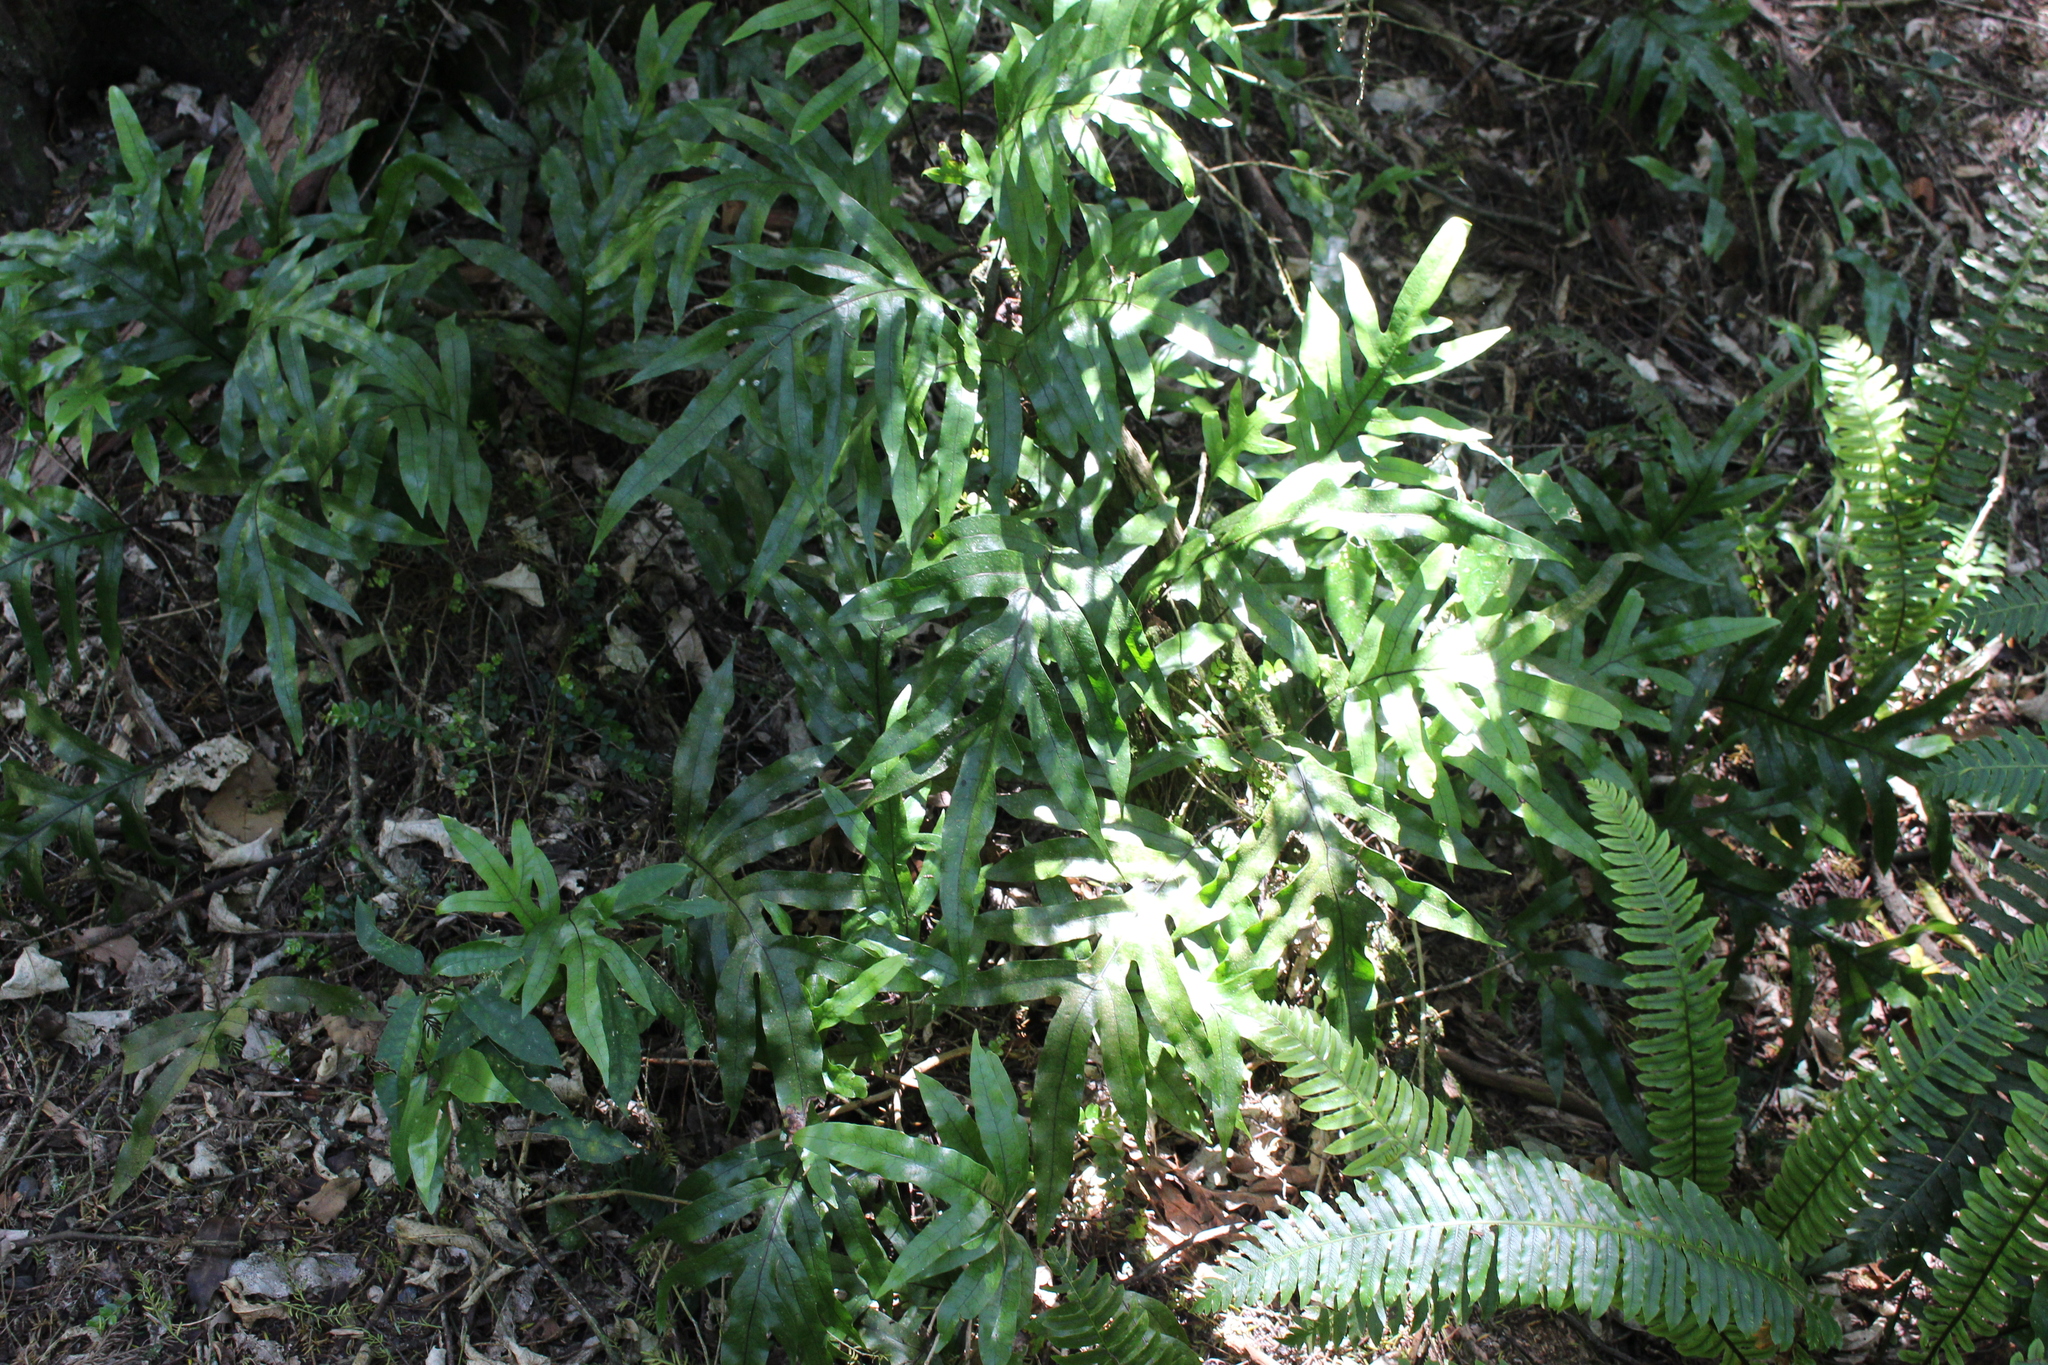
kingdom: Plantae
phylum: Tracheophyta
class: Polypodiopsida
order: Polypodiales
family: Polypodiaceae
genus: Lecanopteris
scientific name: Lecanopteris pustulata
